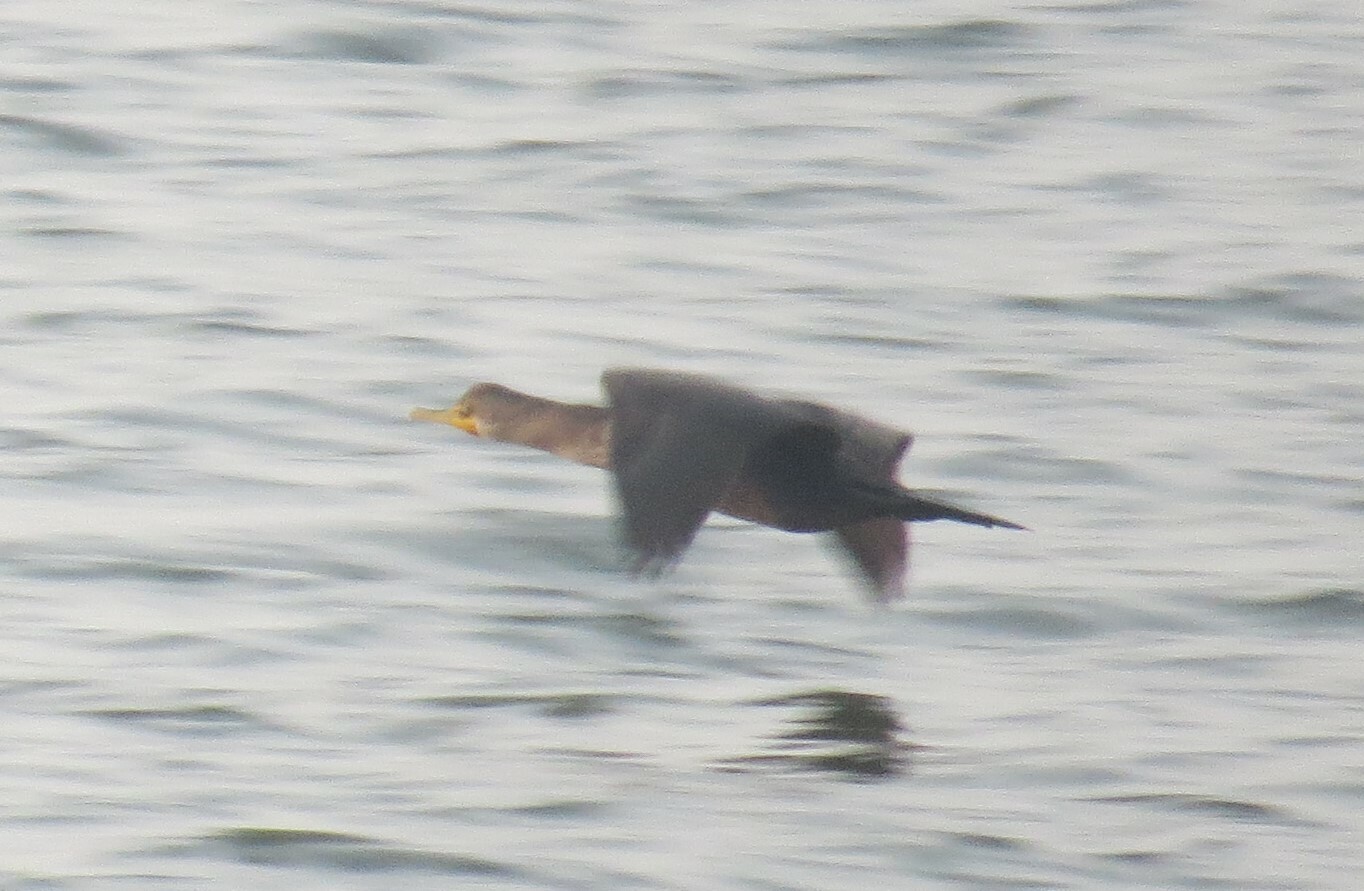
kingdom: Animalia
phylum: Chordata
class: Aves
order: Suliformes
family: Phalacrocoracidae
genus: Phalacrocorax
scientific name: Phalacrocorax auritus
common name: Double-crested cormorant
